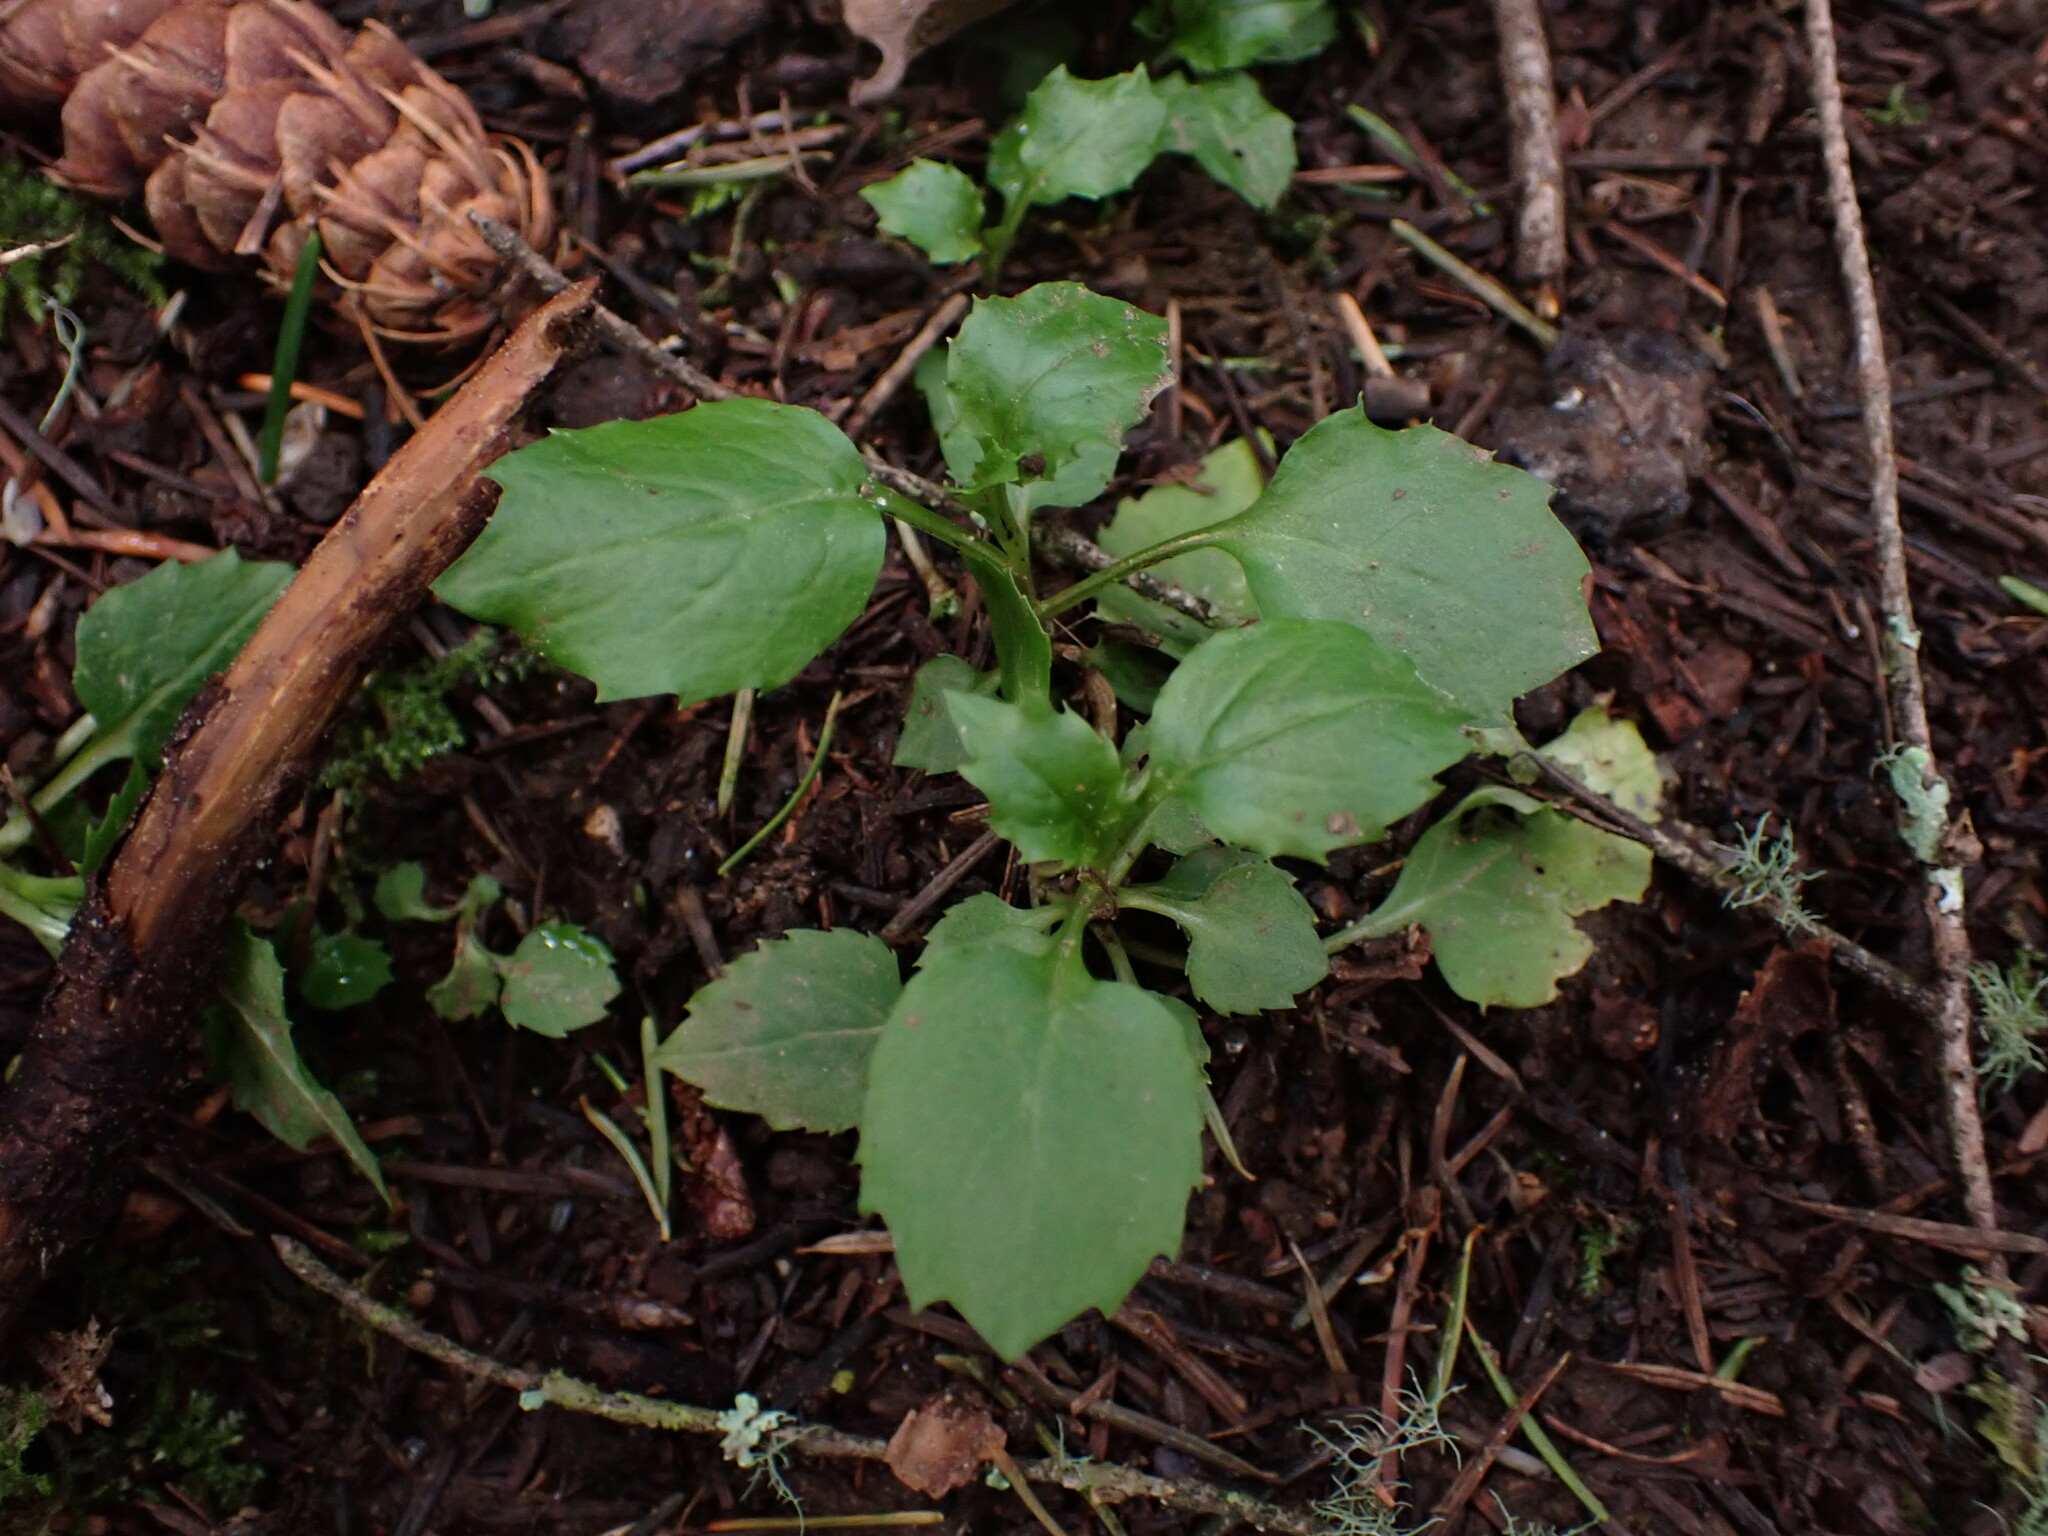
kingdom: Plantae
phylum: Tracheophyta
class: Magnoliopsida
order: Asterales
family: Campanulaceae
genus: Campanula
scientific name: Campanula scouleri
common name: Scouler's harebell
